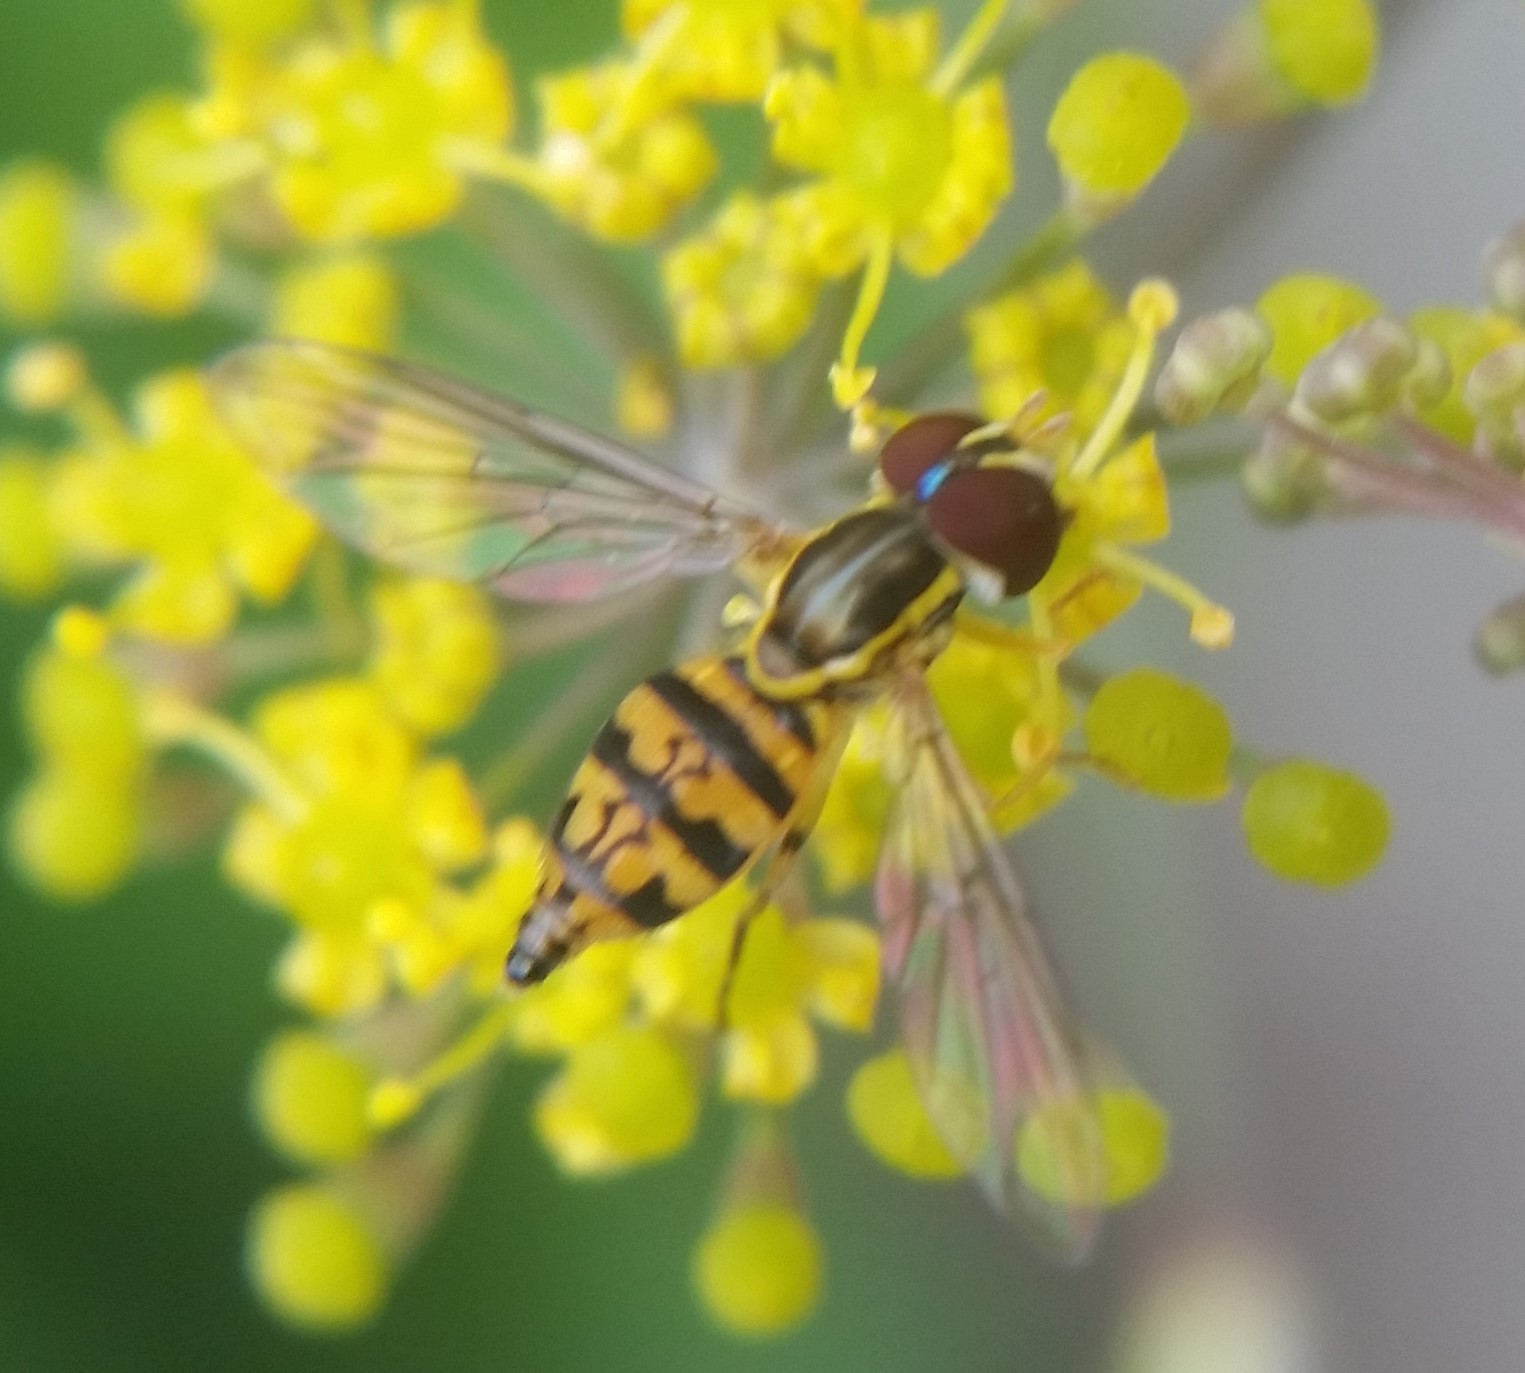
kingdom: Animalia
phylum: Arthropoda
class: Insecta
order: Diptera
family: Syrphidae
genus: Toxomerus
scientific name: Toxomerus geminatus
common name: Eastern calligrapher
